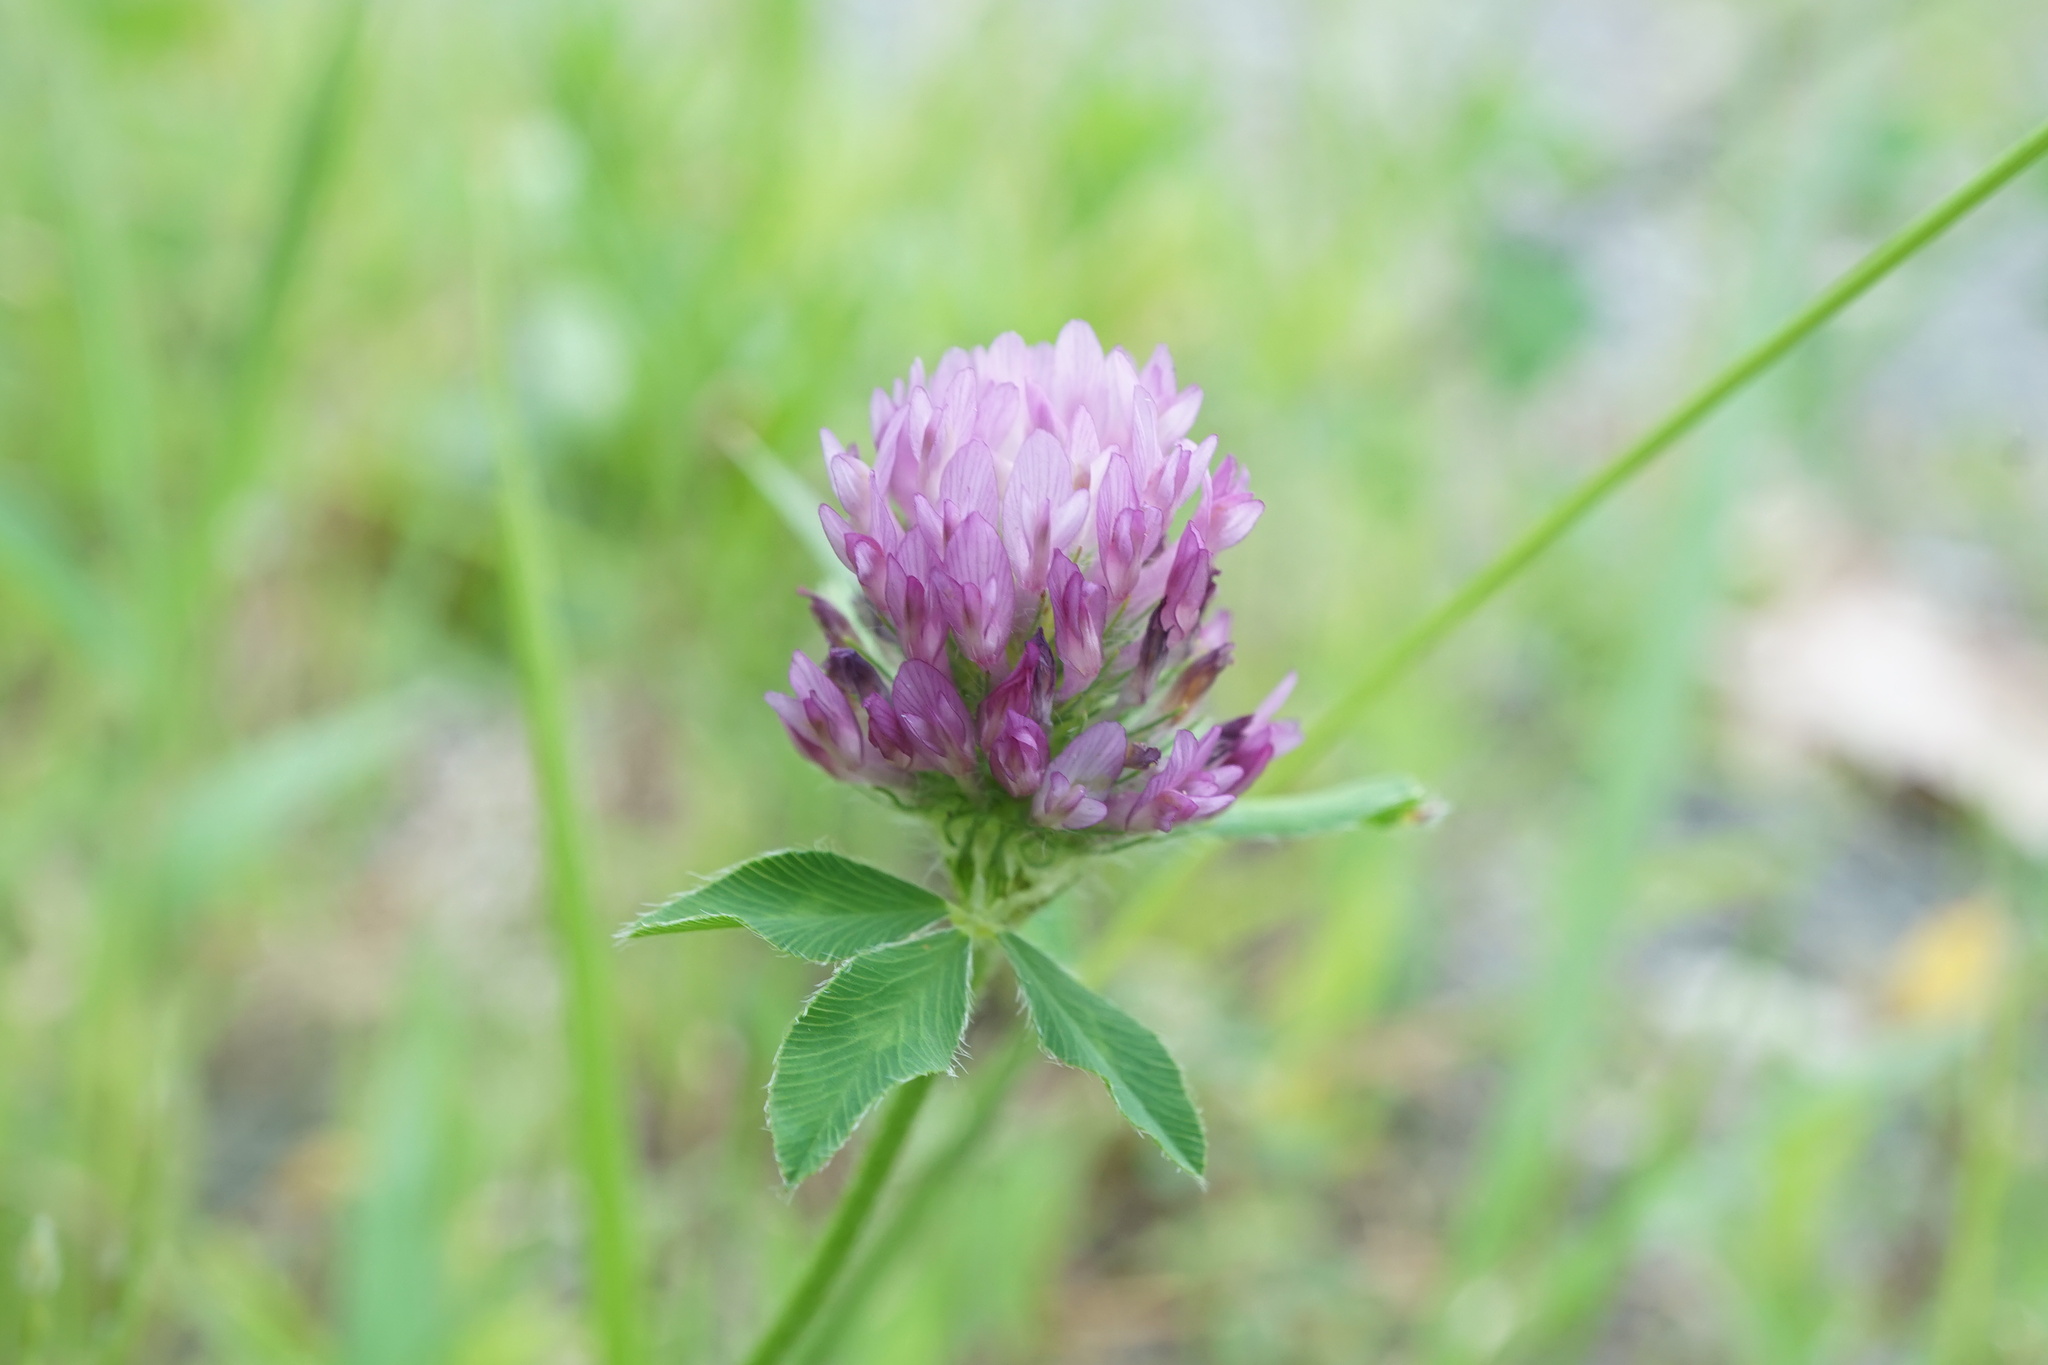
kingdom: Plantae
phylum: Tracheophyta
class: Magnoliopsida
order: Fabales
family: Fabaceae
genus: Trifolium
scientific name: Trifolium pratense
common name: Red clover
